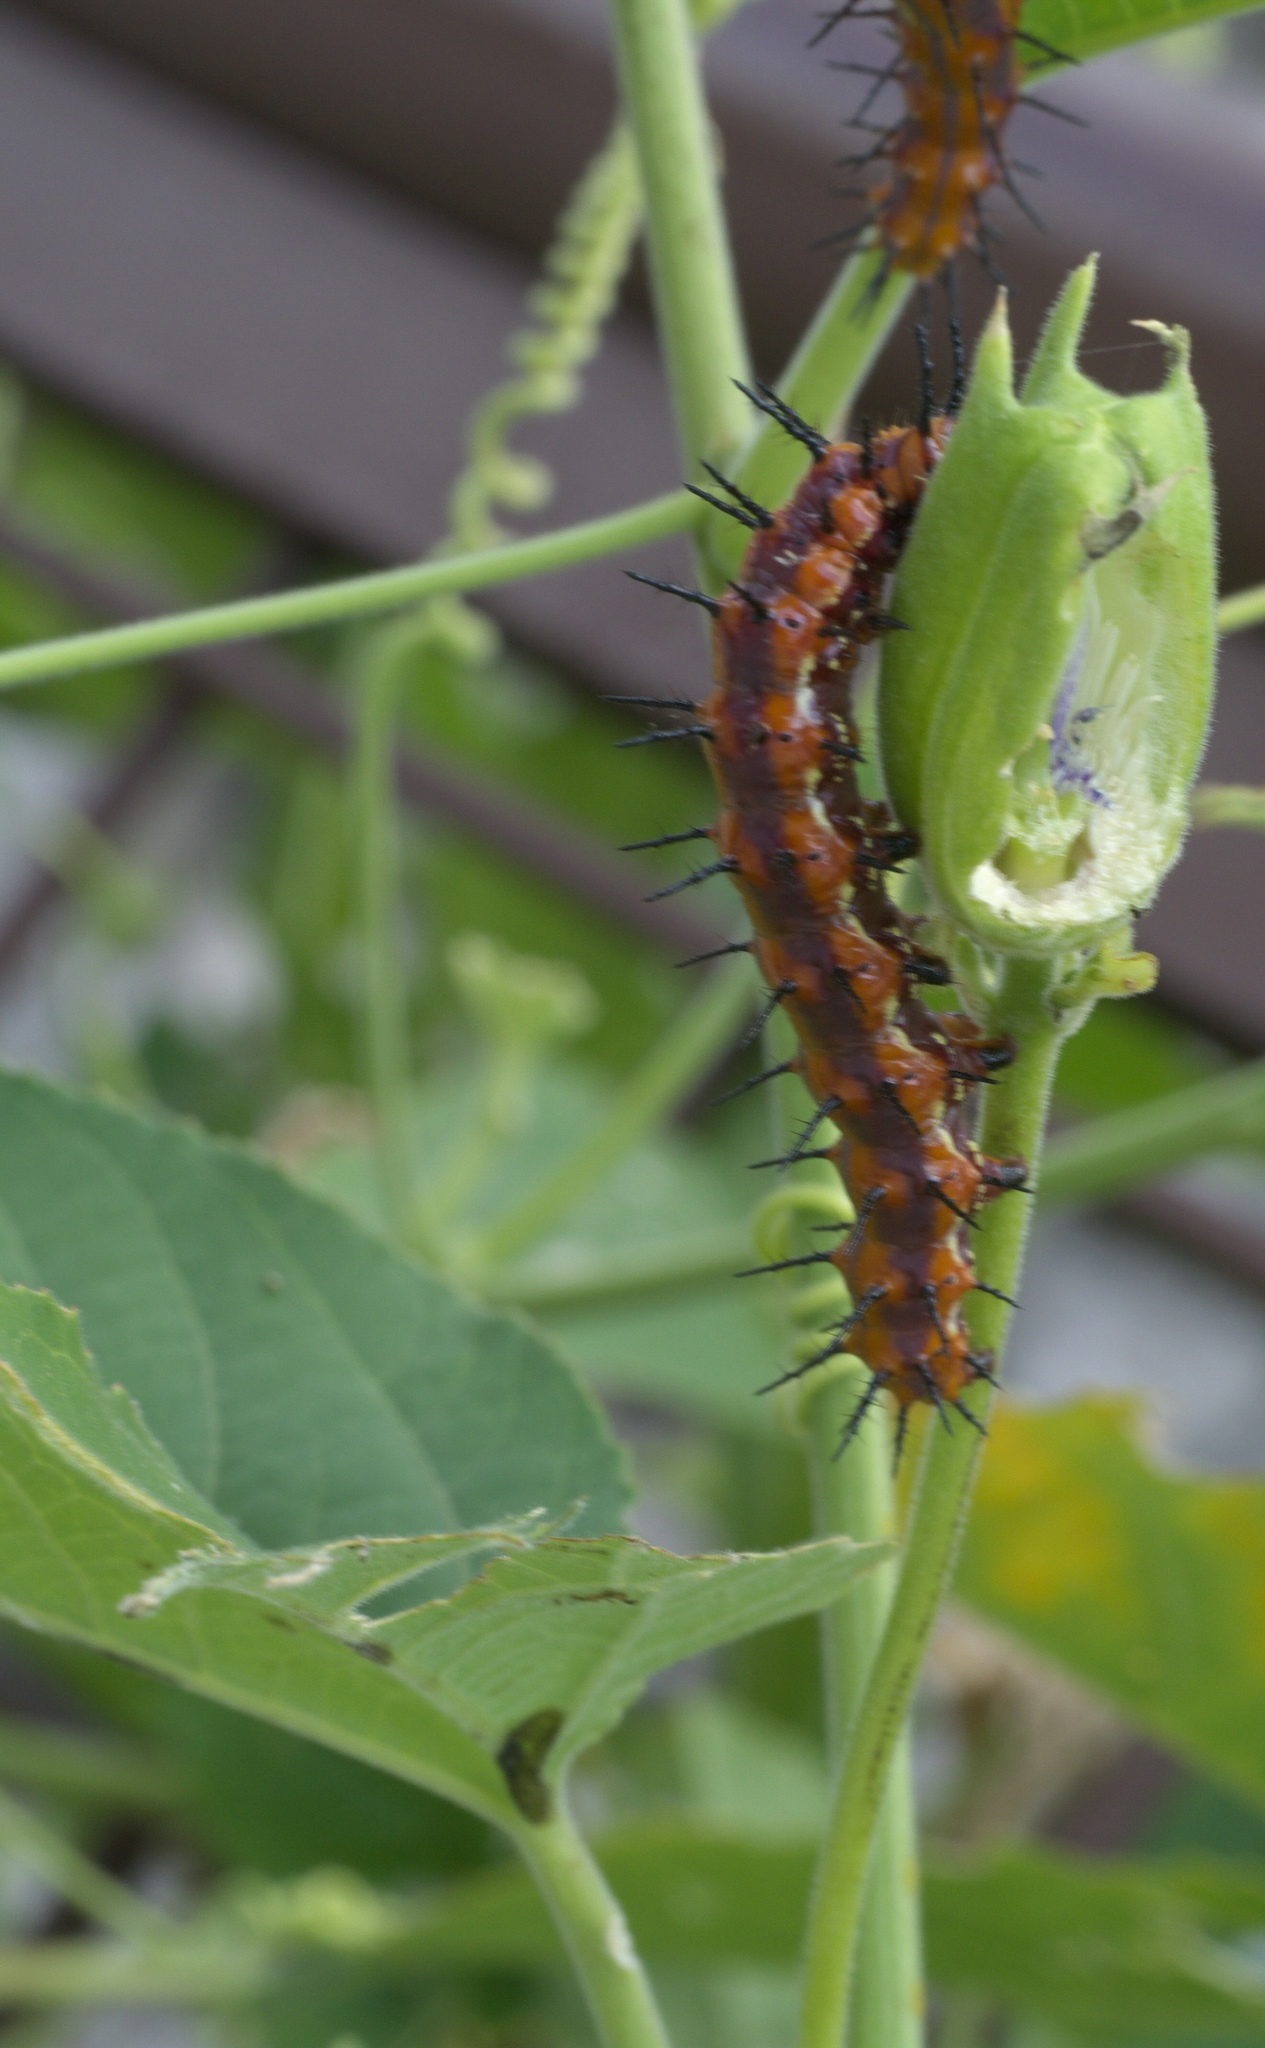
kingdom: Animalia
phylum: Arthropoda
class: Insecta
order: Lepidoptera
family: Nymphalidae
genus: Dione
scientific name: Dione vanillae
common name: Gulf fritillary
